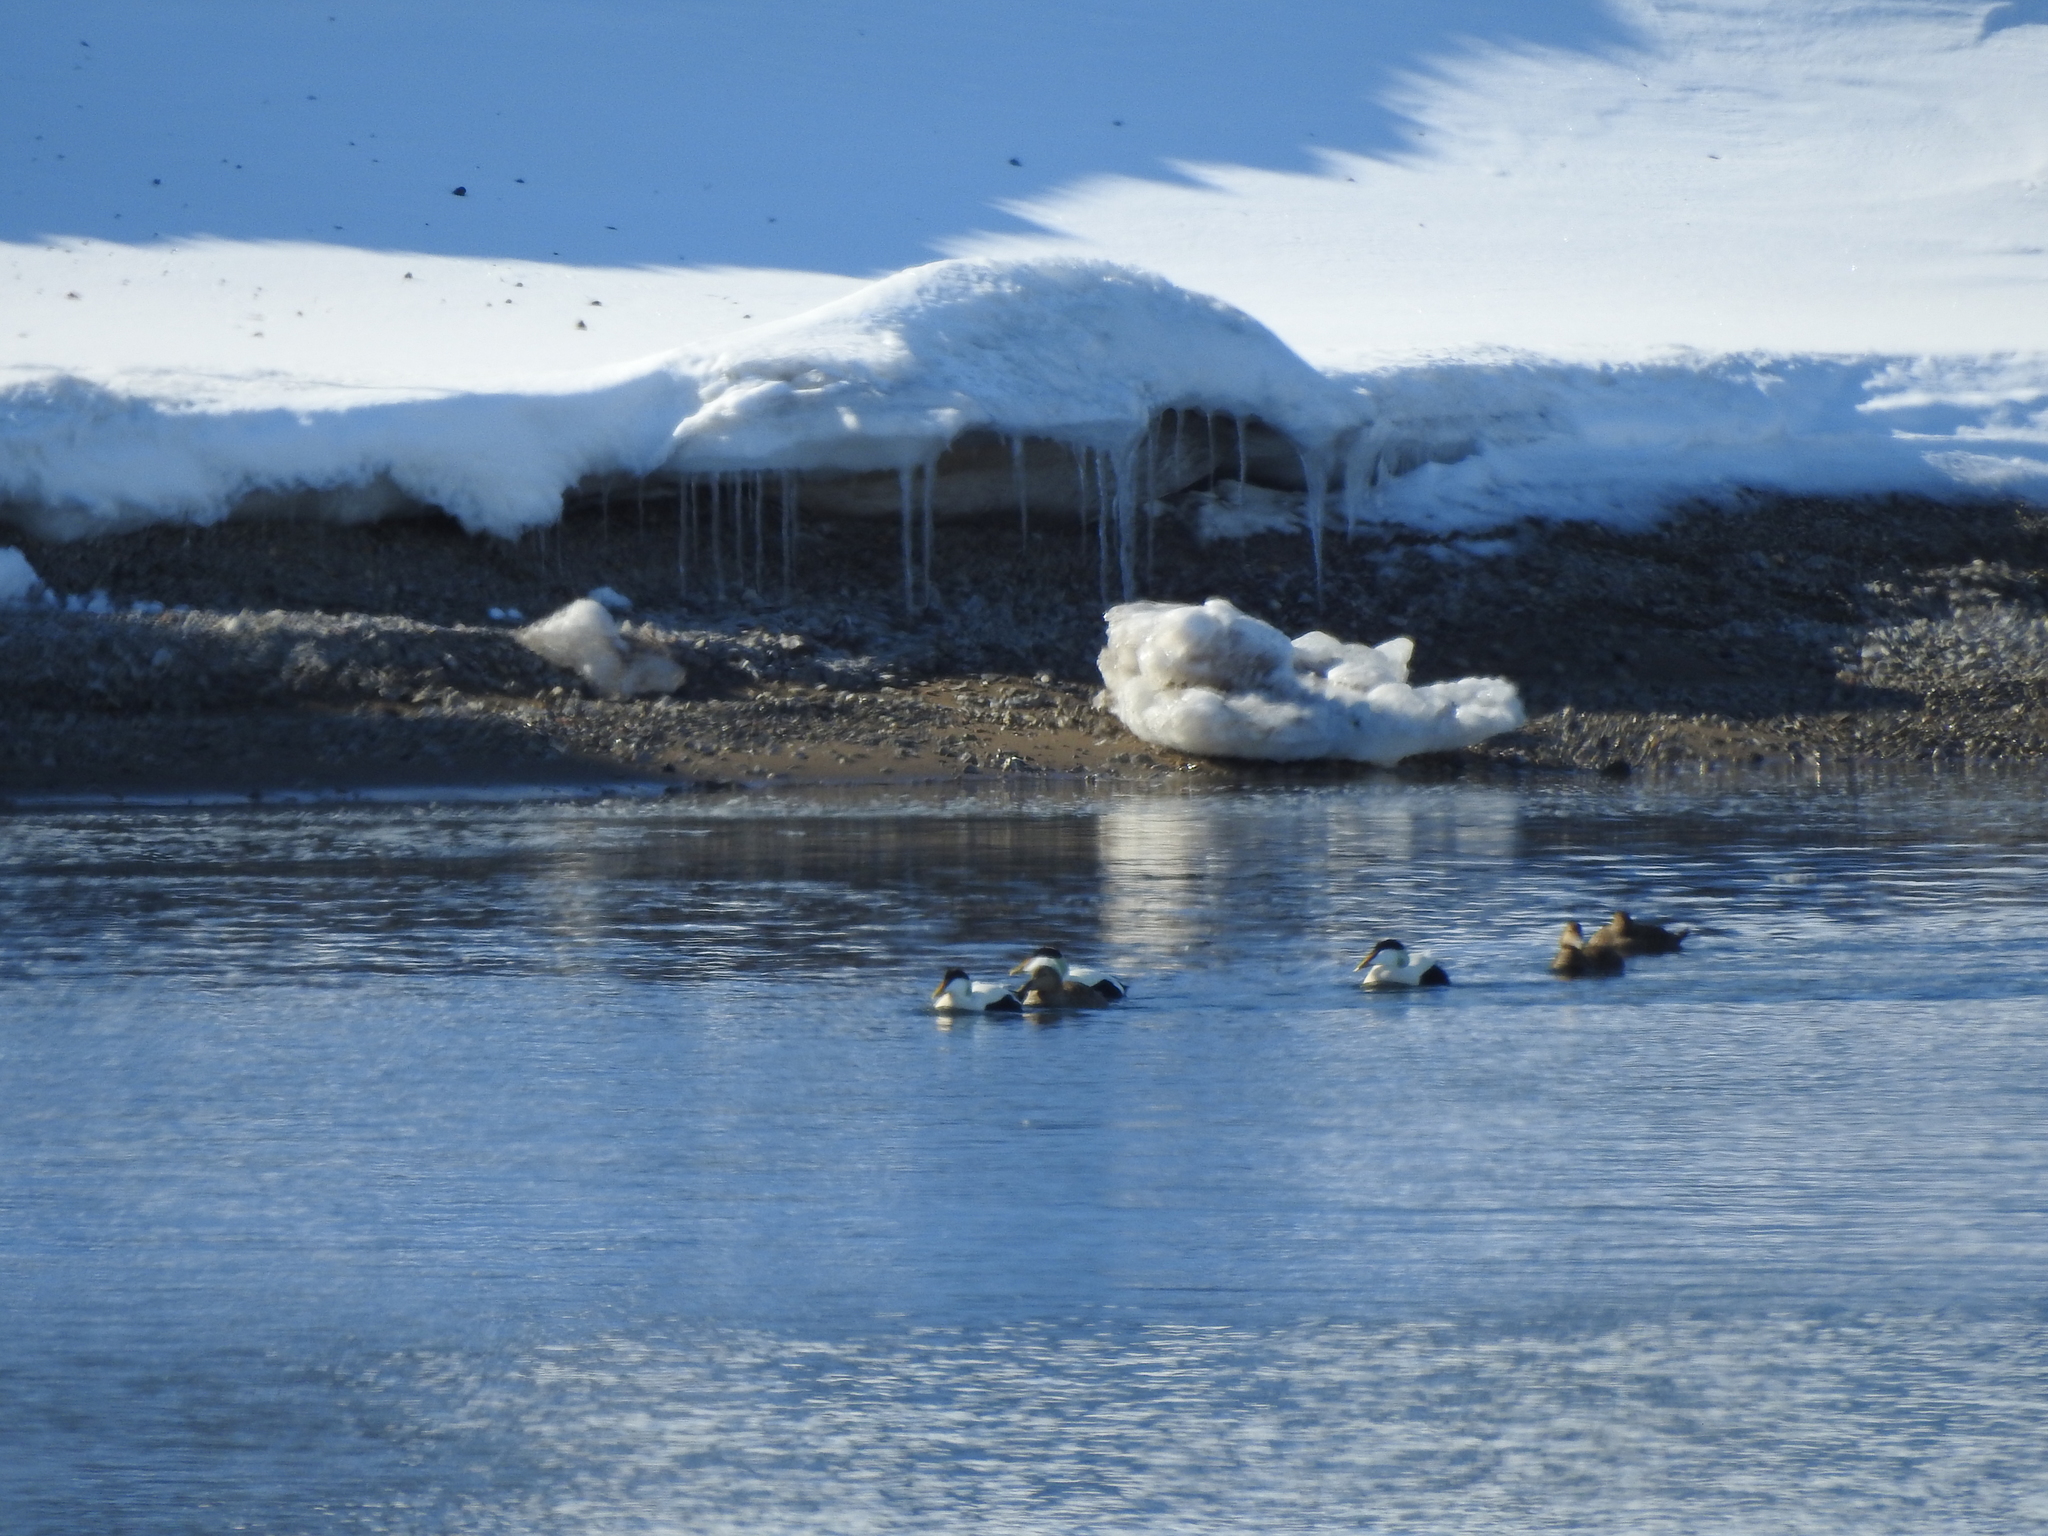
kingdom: Animalia
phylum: Chordata
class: Aves
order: Anseriformes
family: Anatidae
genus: Somateria
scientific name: Somateria mollissima
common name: Common eider
